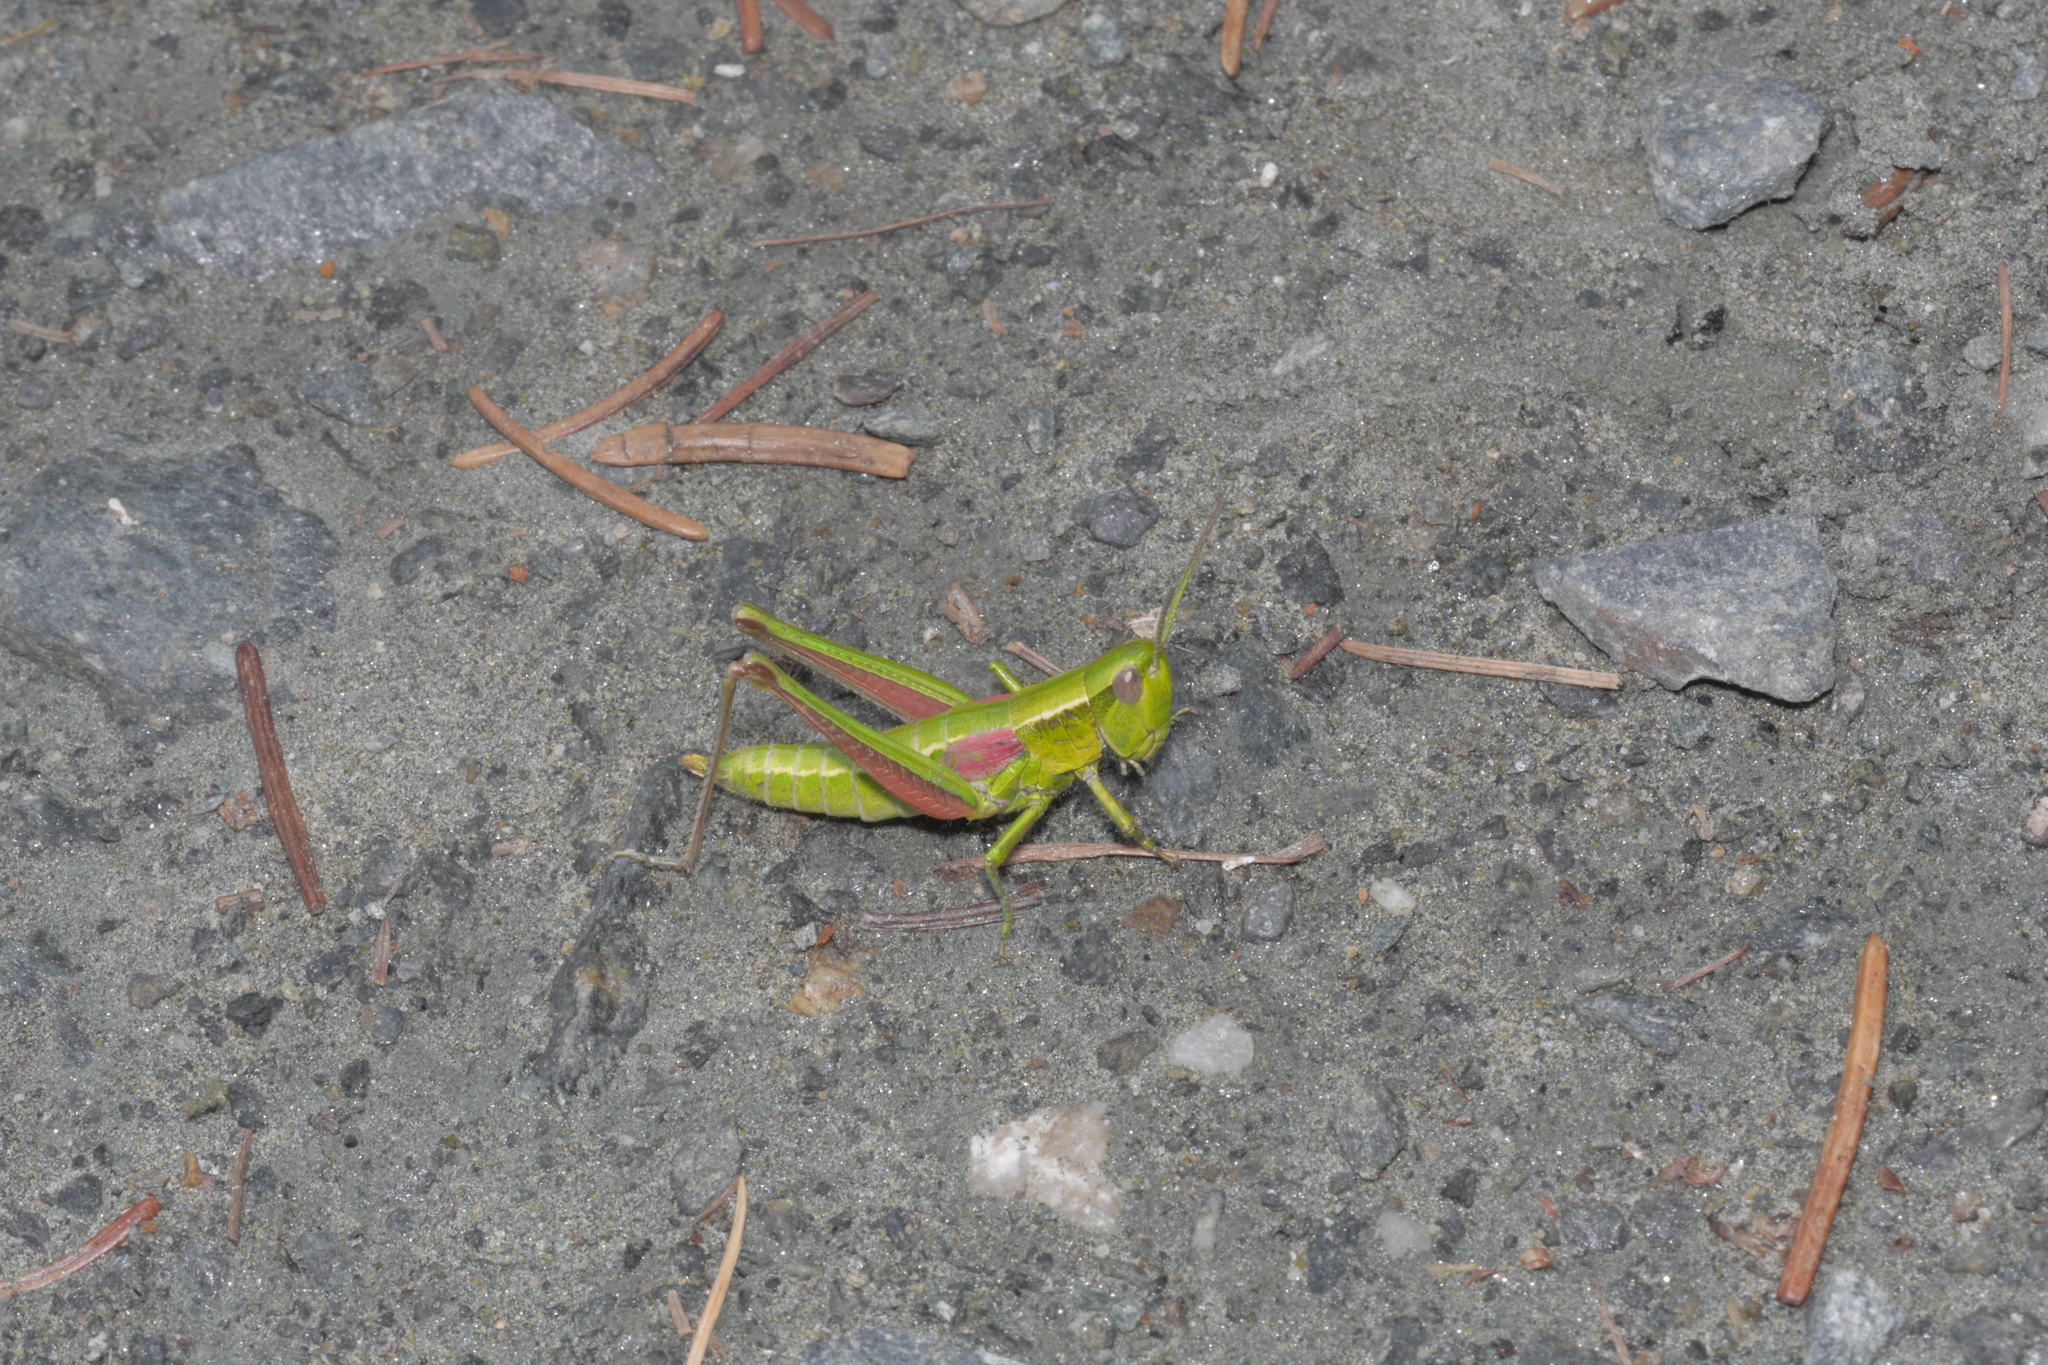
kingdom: Animalia
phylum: Arthropoda
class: Insecta
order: Orthoptera
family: Acrididae
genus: Euthystira
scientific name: Euthystira brachyptera
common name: Small gold grasshopper
